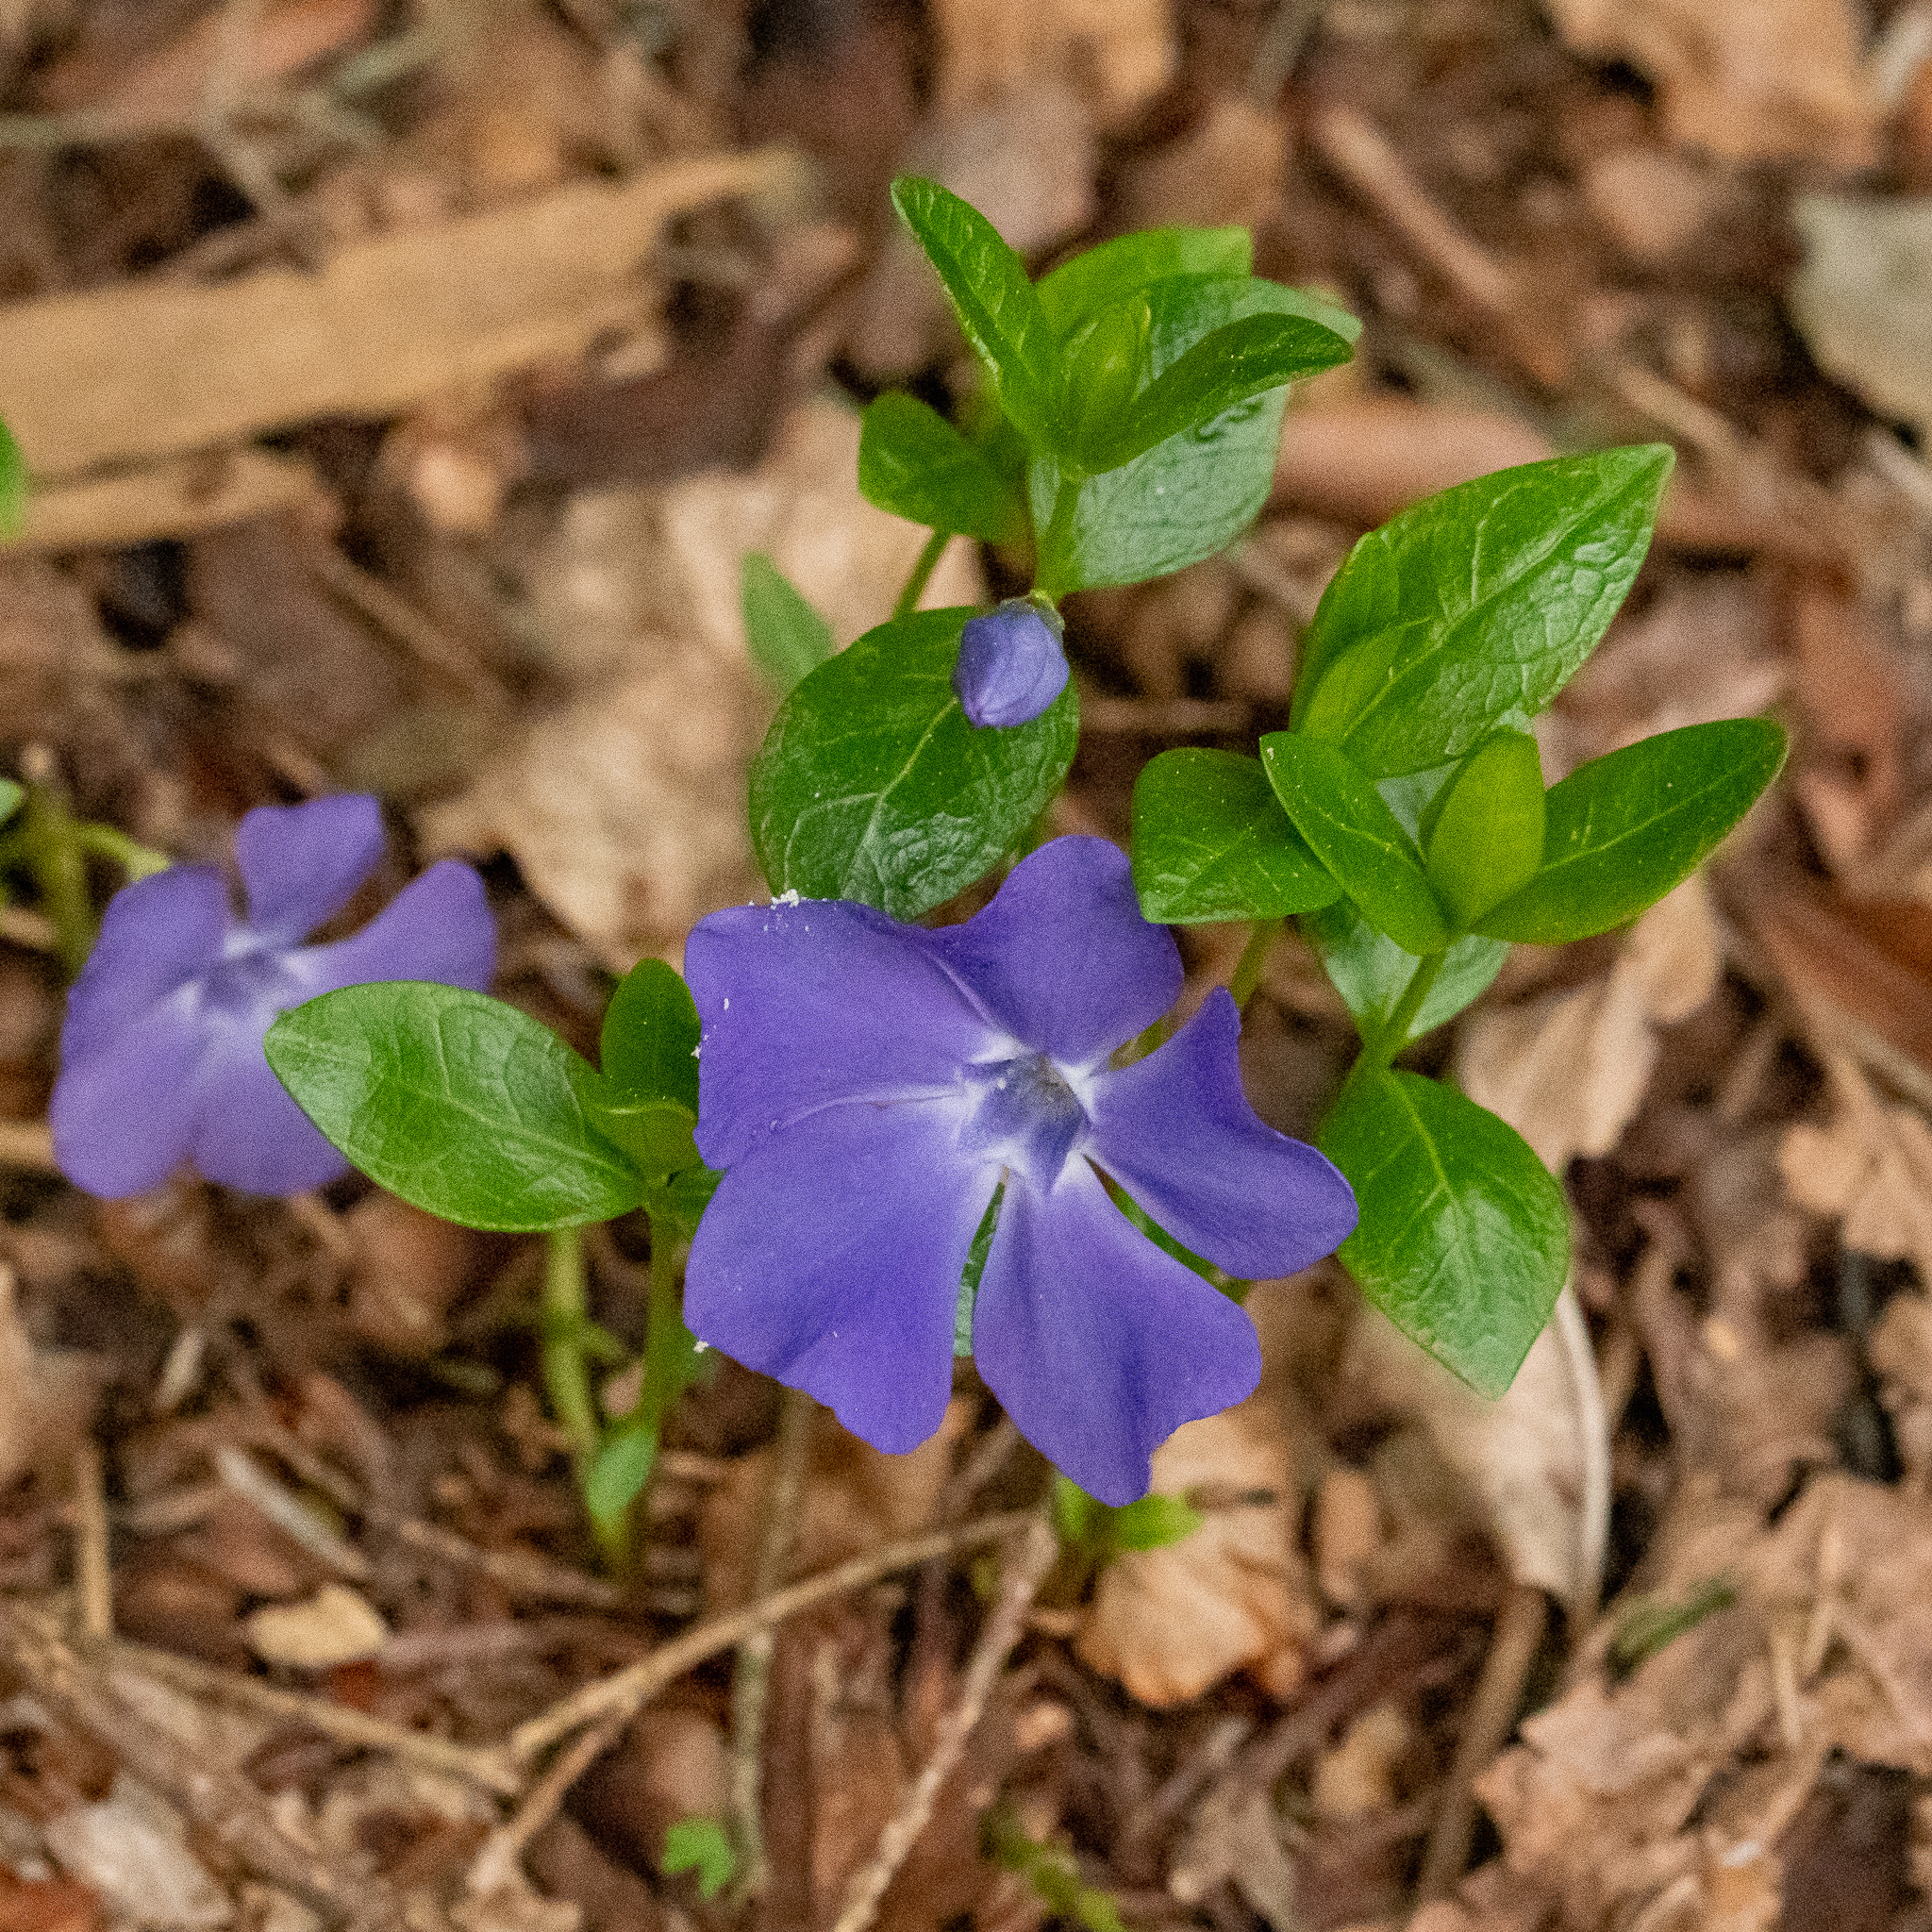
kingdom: Plantae
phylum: Tracheophyta
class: Magnoliopsida
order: Gentianales
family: Apocynaceae
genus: Vinca
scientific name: Vinca minor
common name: Lesser periwinkle
